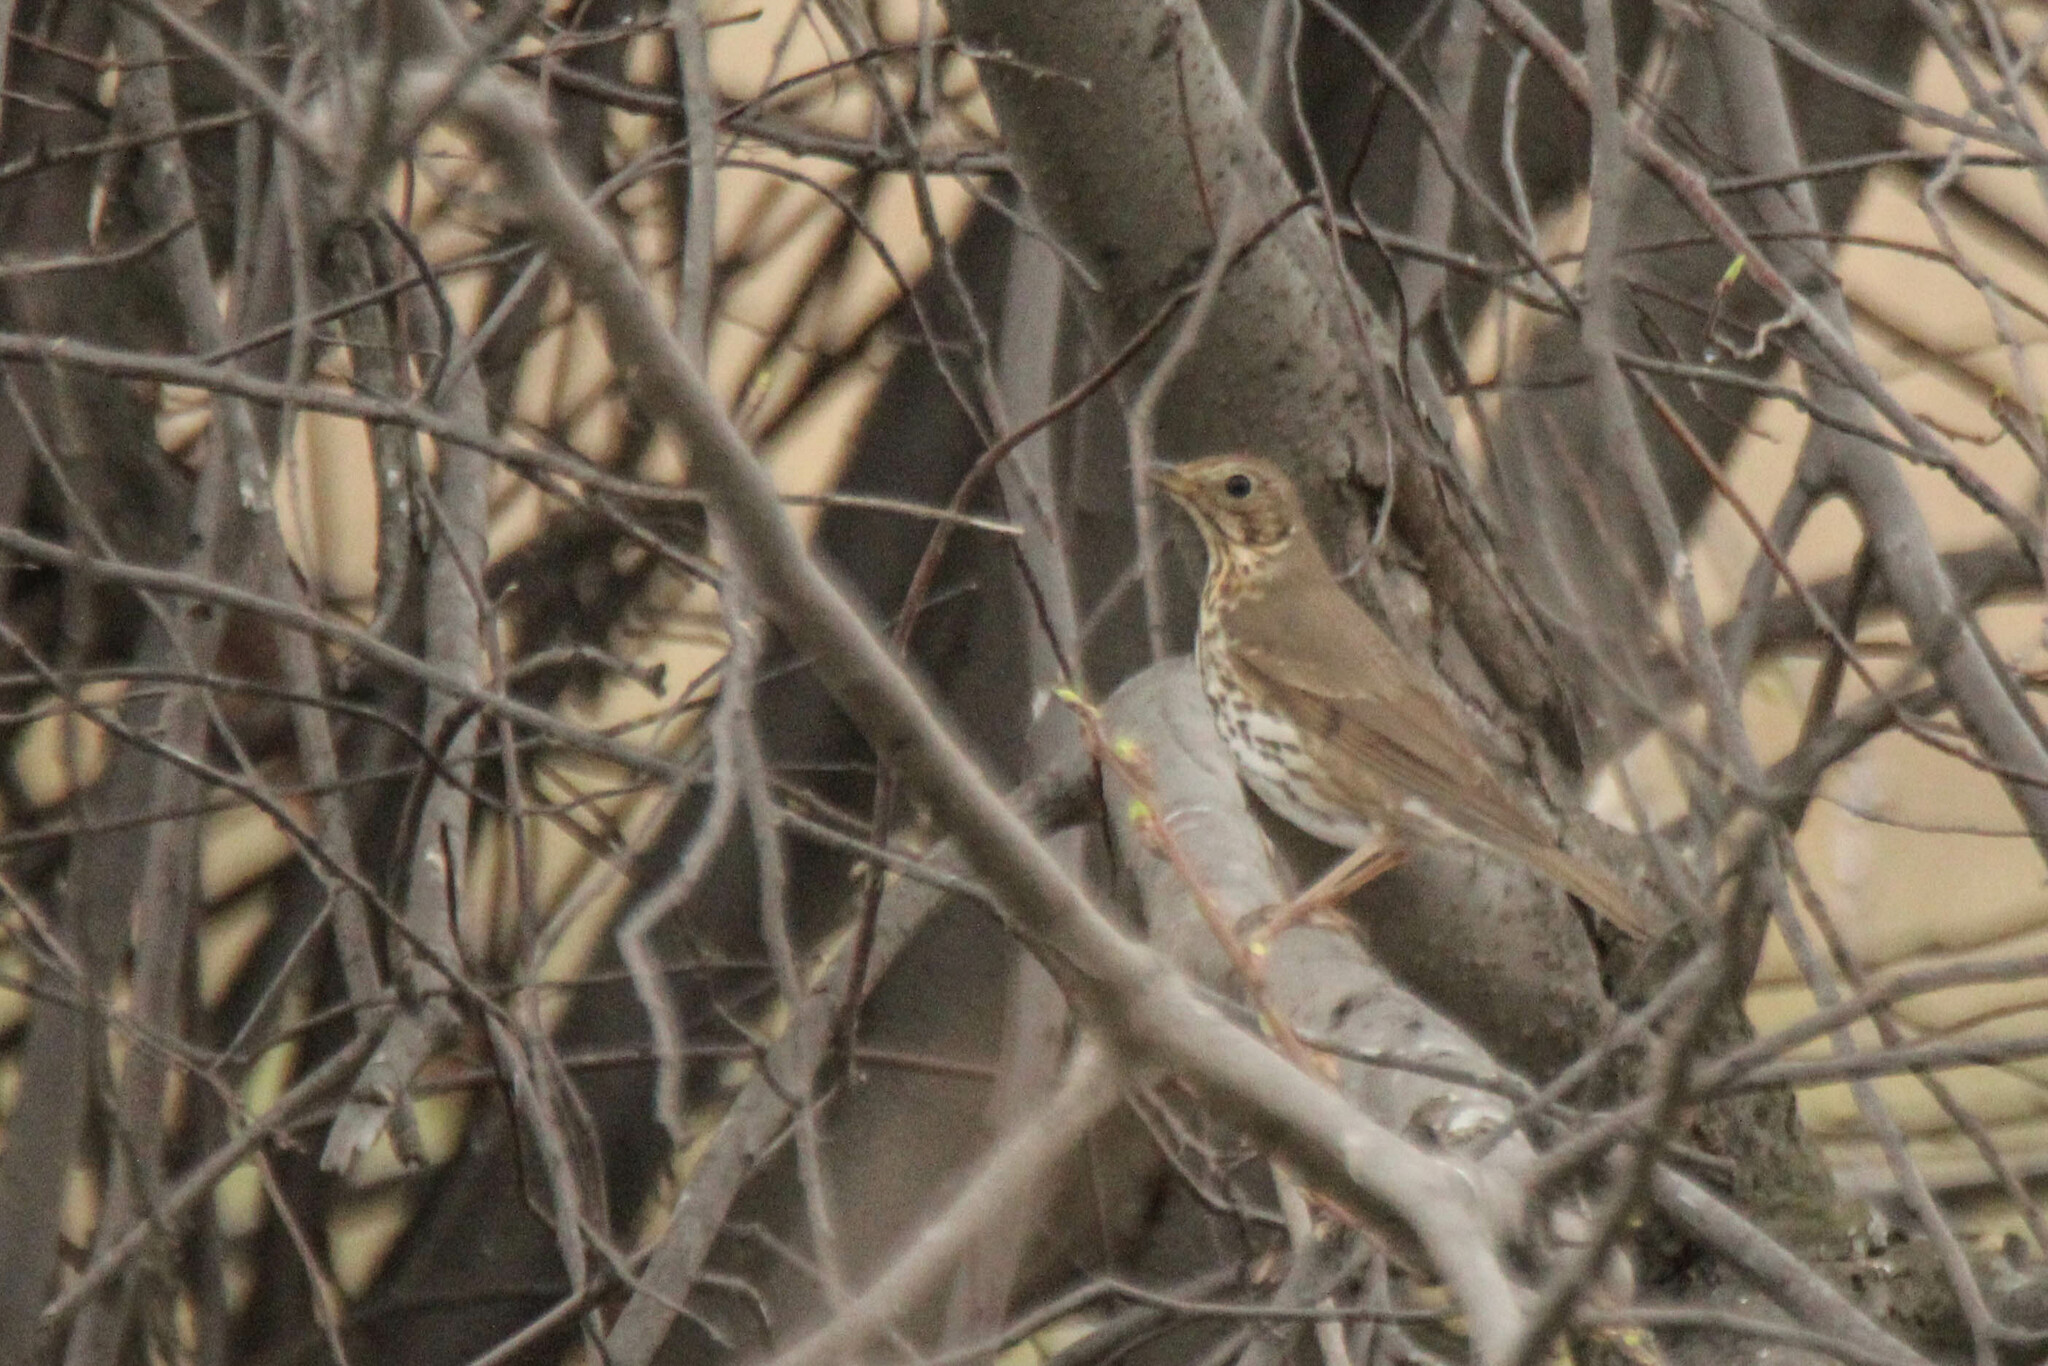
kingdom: Animalia
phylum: Chordata
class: Aves
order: Passeriformes
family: Turdidae
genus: Turdus
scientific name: Turdus philomelos
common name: Song thrush
